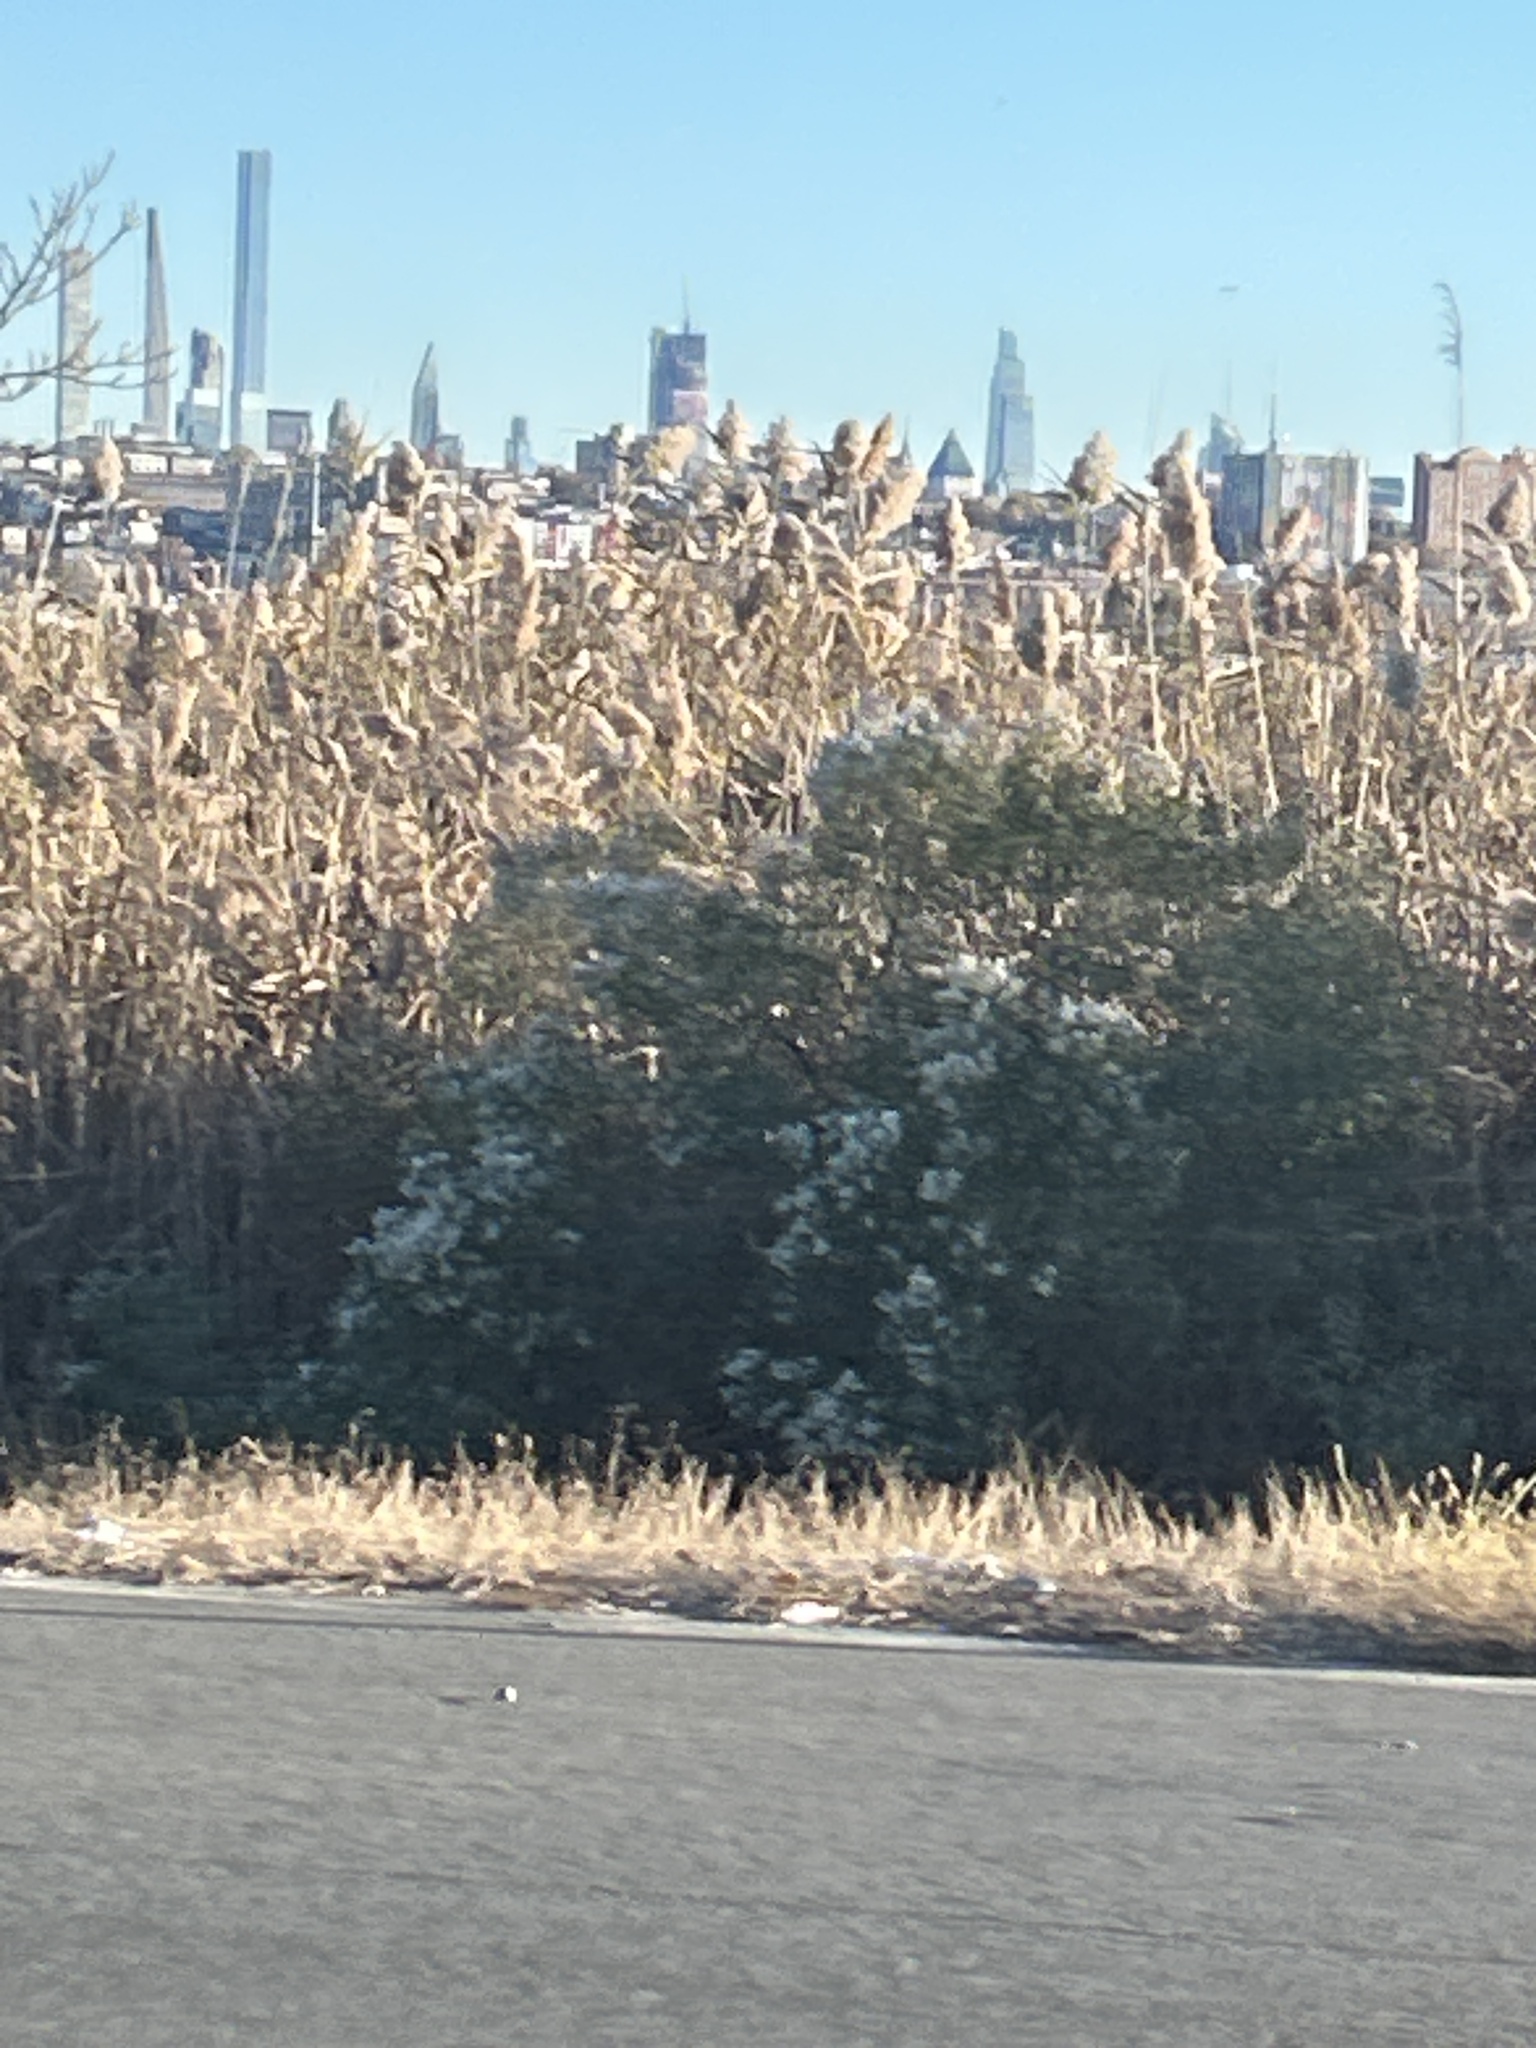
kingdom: Plantae
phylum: Tracheophyta
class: Magnoliopsida
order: Asterales
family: Asteraceae
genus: Baccharis
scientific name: Baccharis halimifolia
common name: Eastern baccharis
